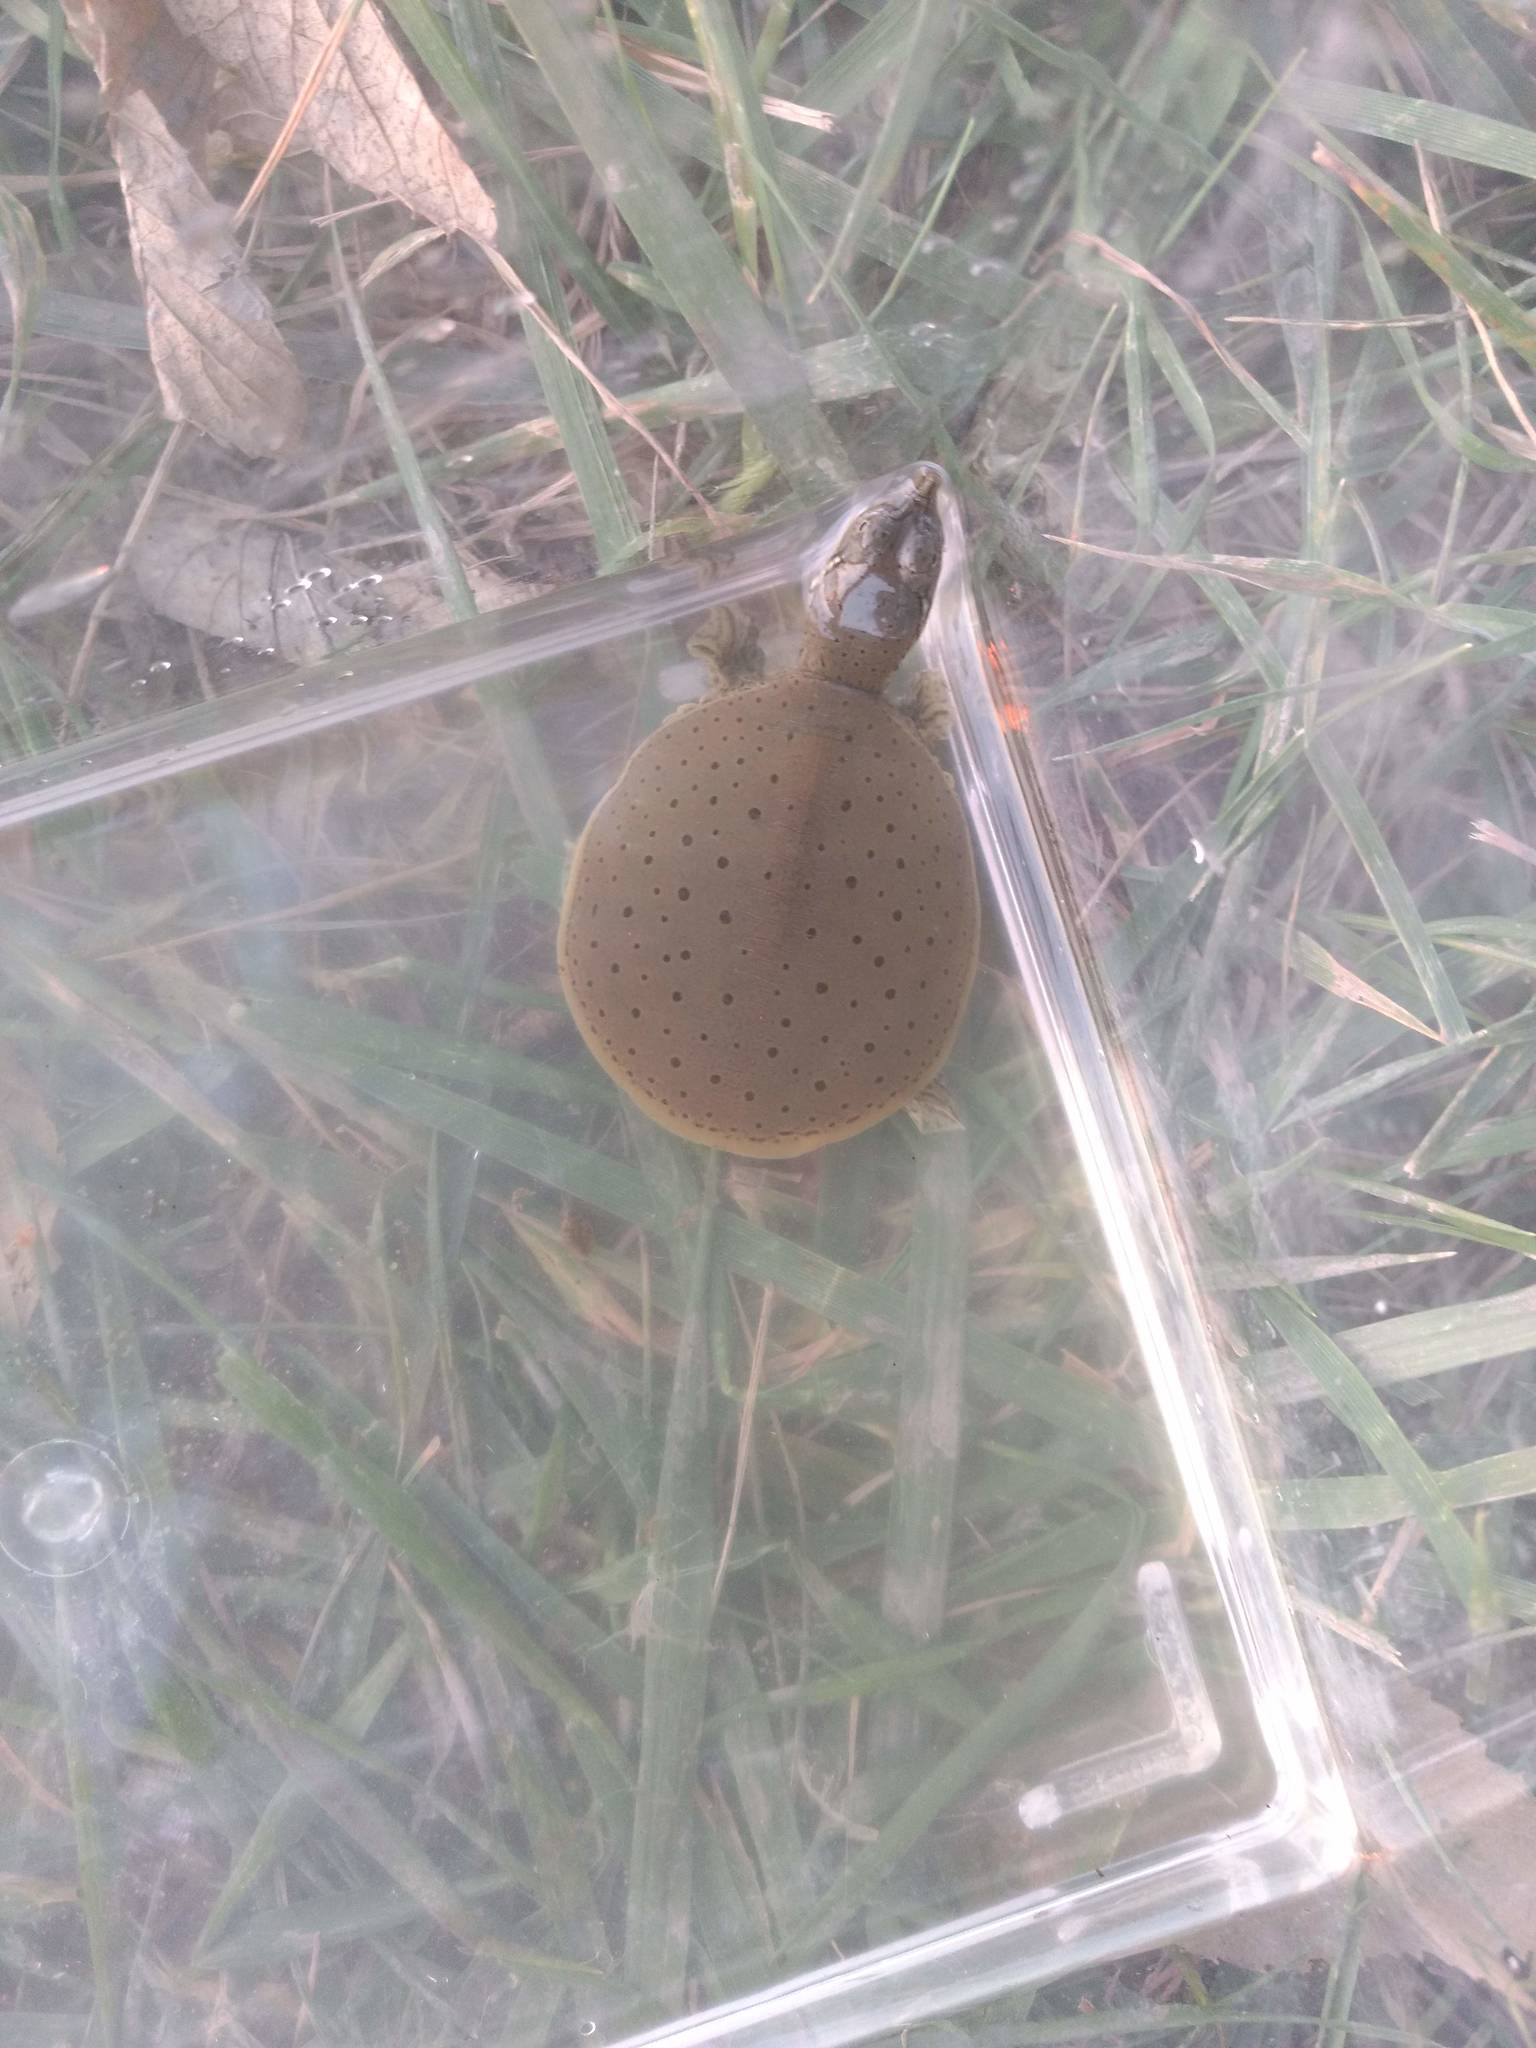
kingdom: Animalia
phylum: Chordata
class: Testudines
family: Trionychidae
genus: Apalone
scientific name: Apalone spinifera
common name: Spiny softshell turtle
